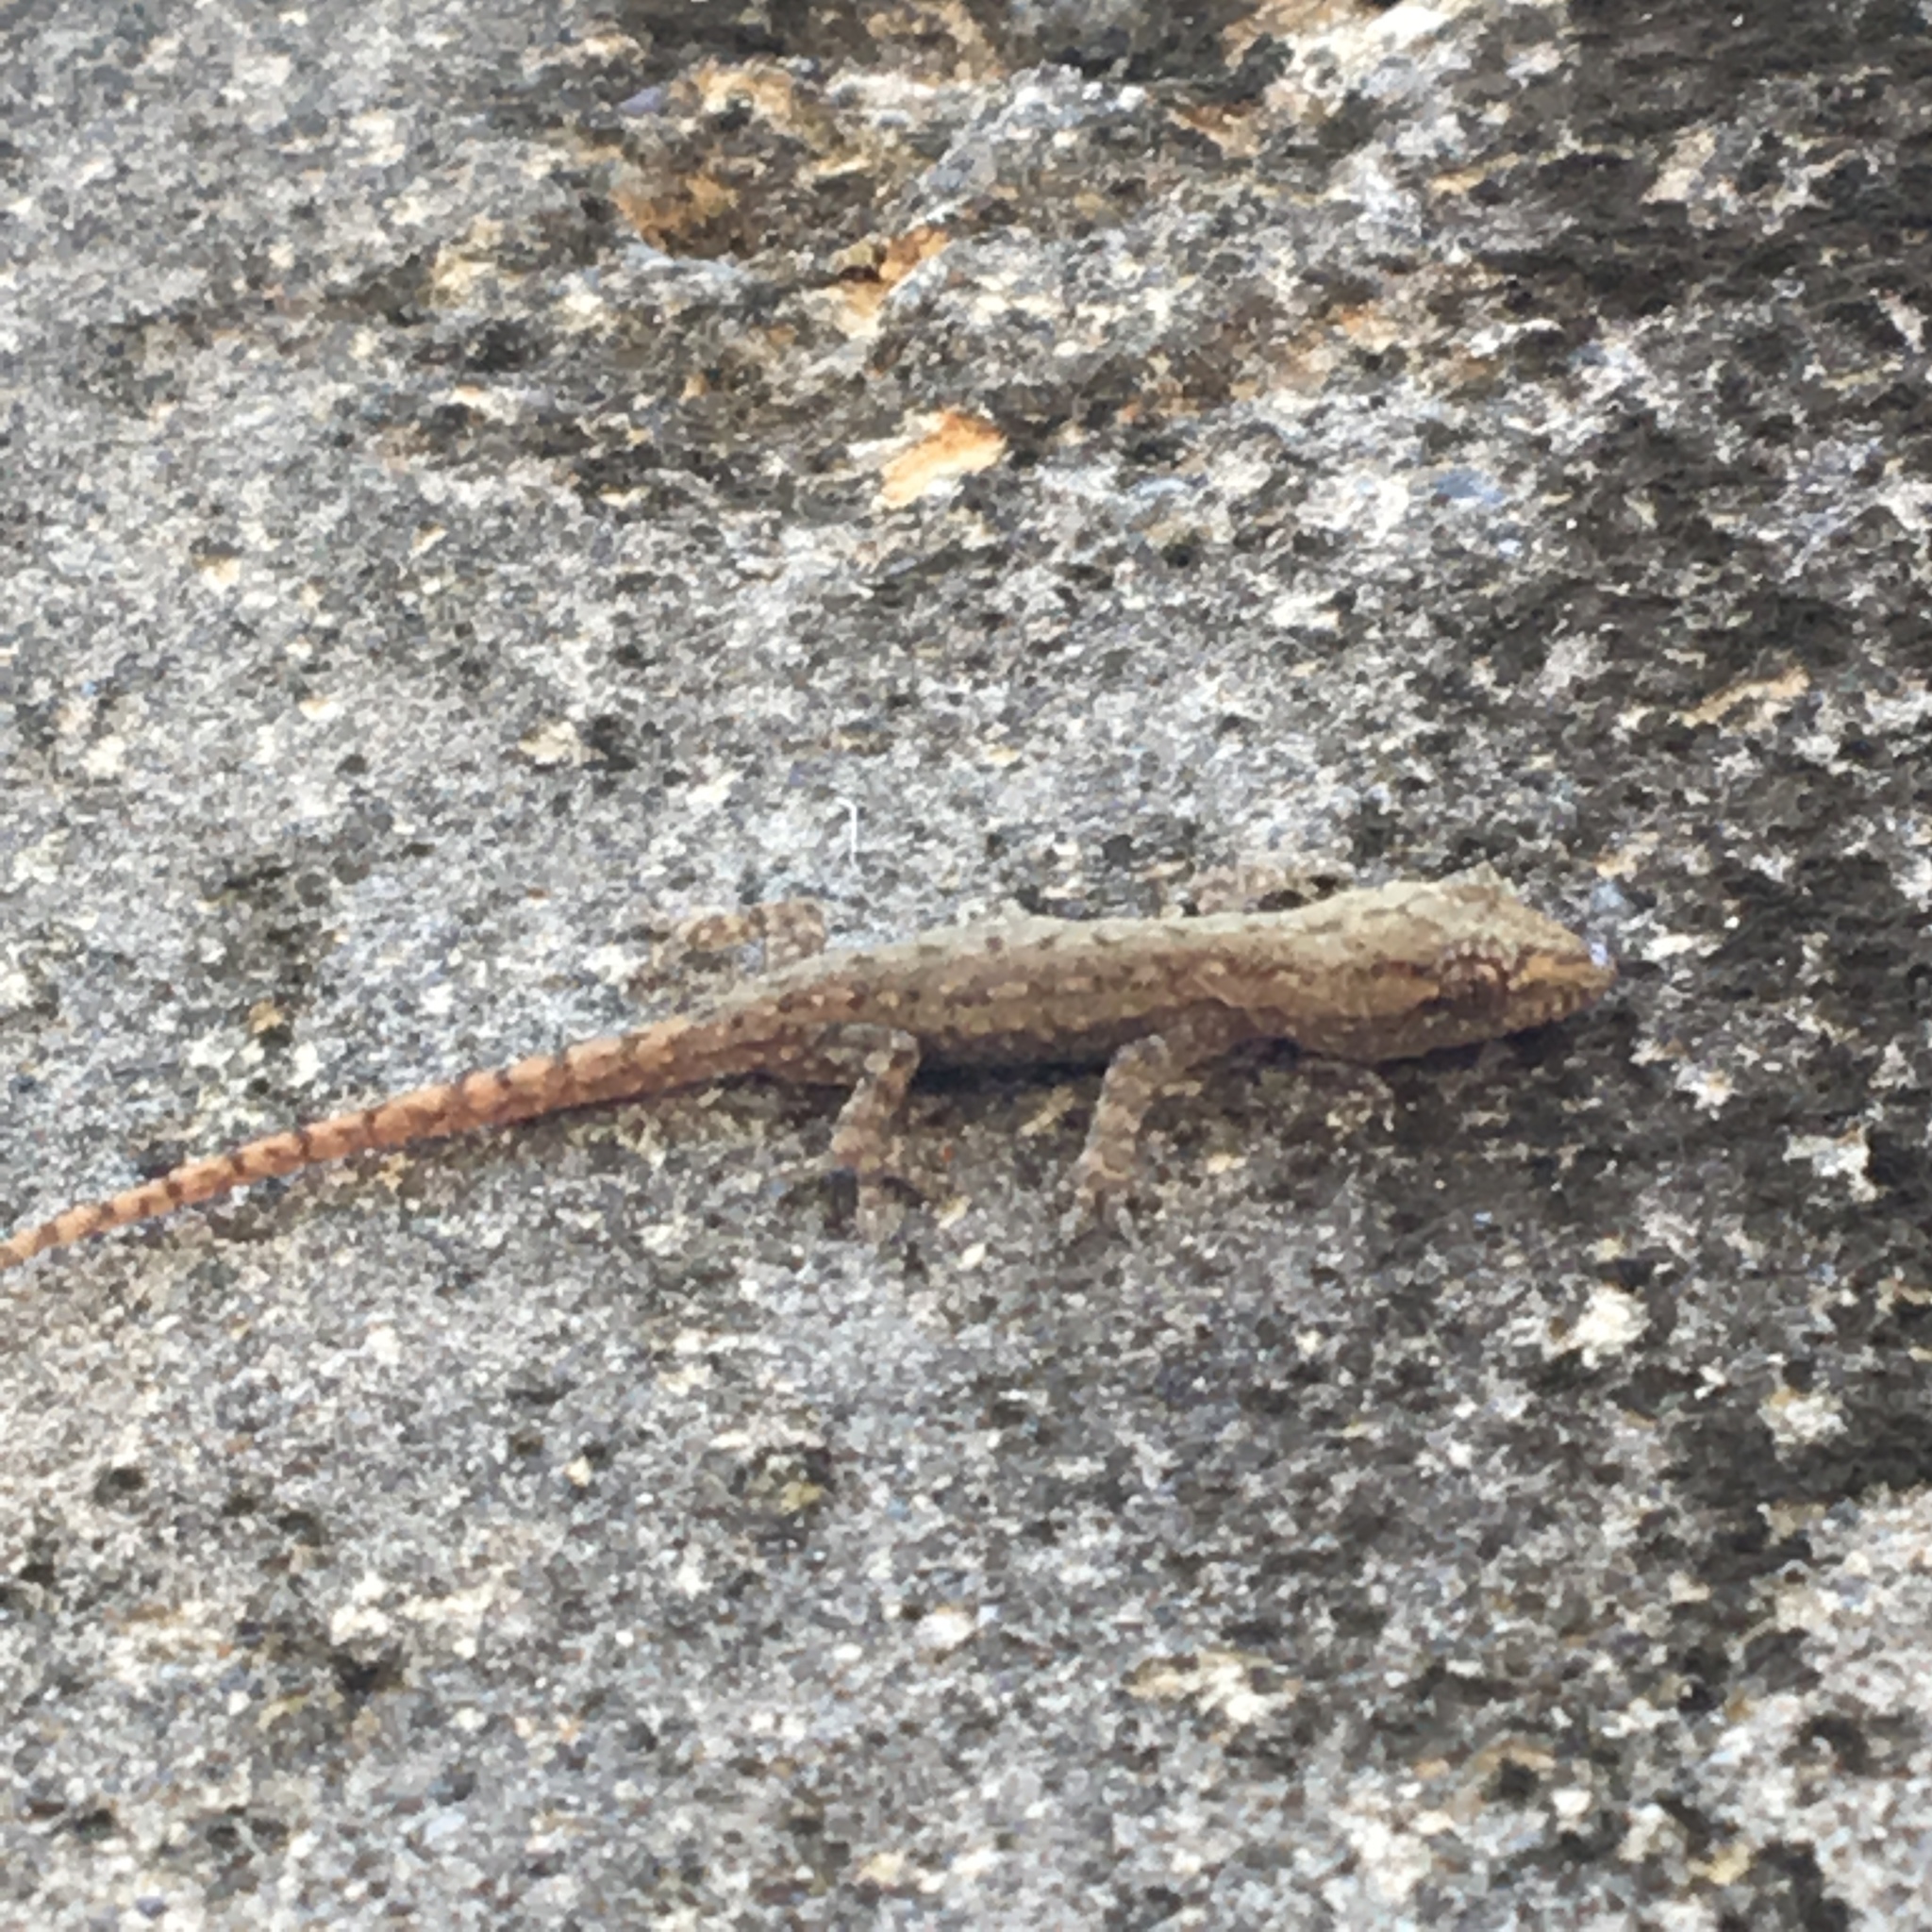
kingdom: Animalia
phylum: Chordata
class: Squamata
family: Gekkonidae
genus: Hemidactylus
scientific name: Hemidactylus frenatus
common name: Common house gecko
